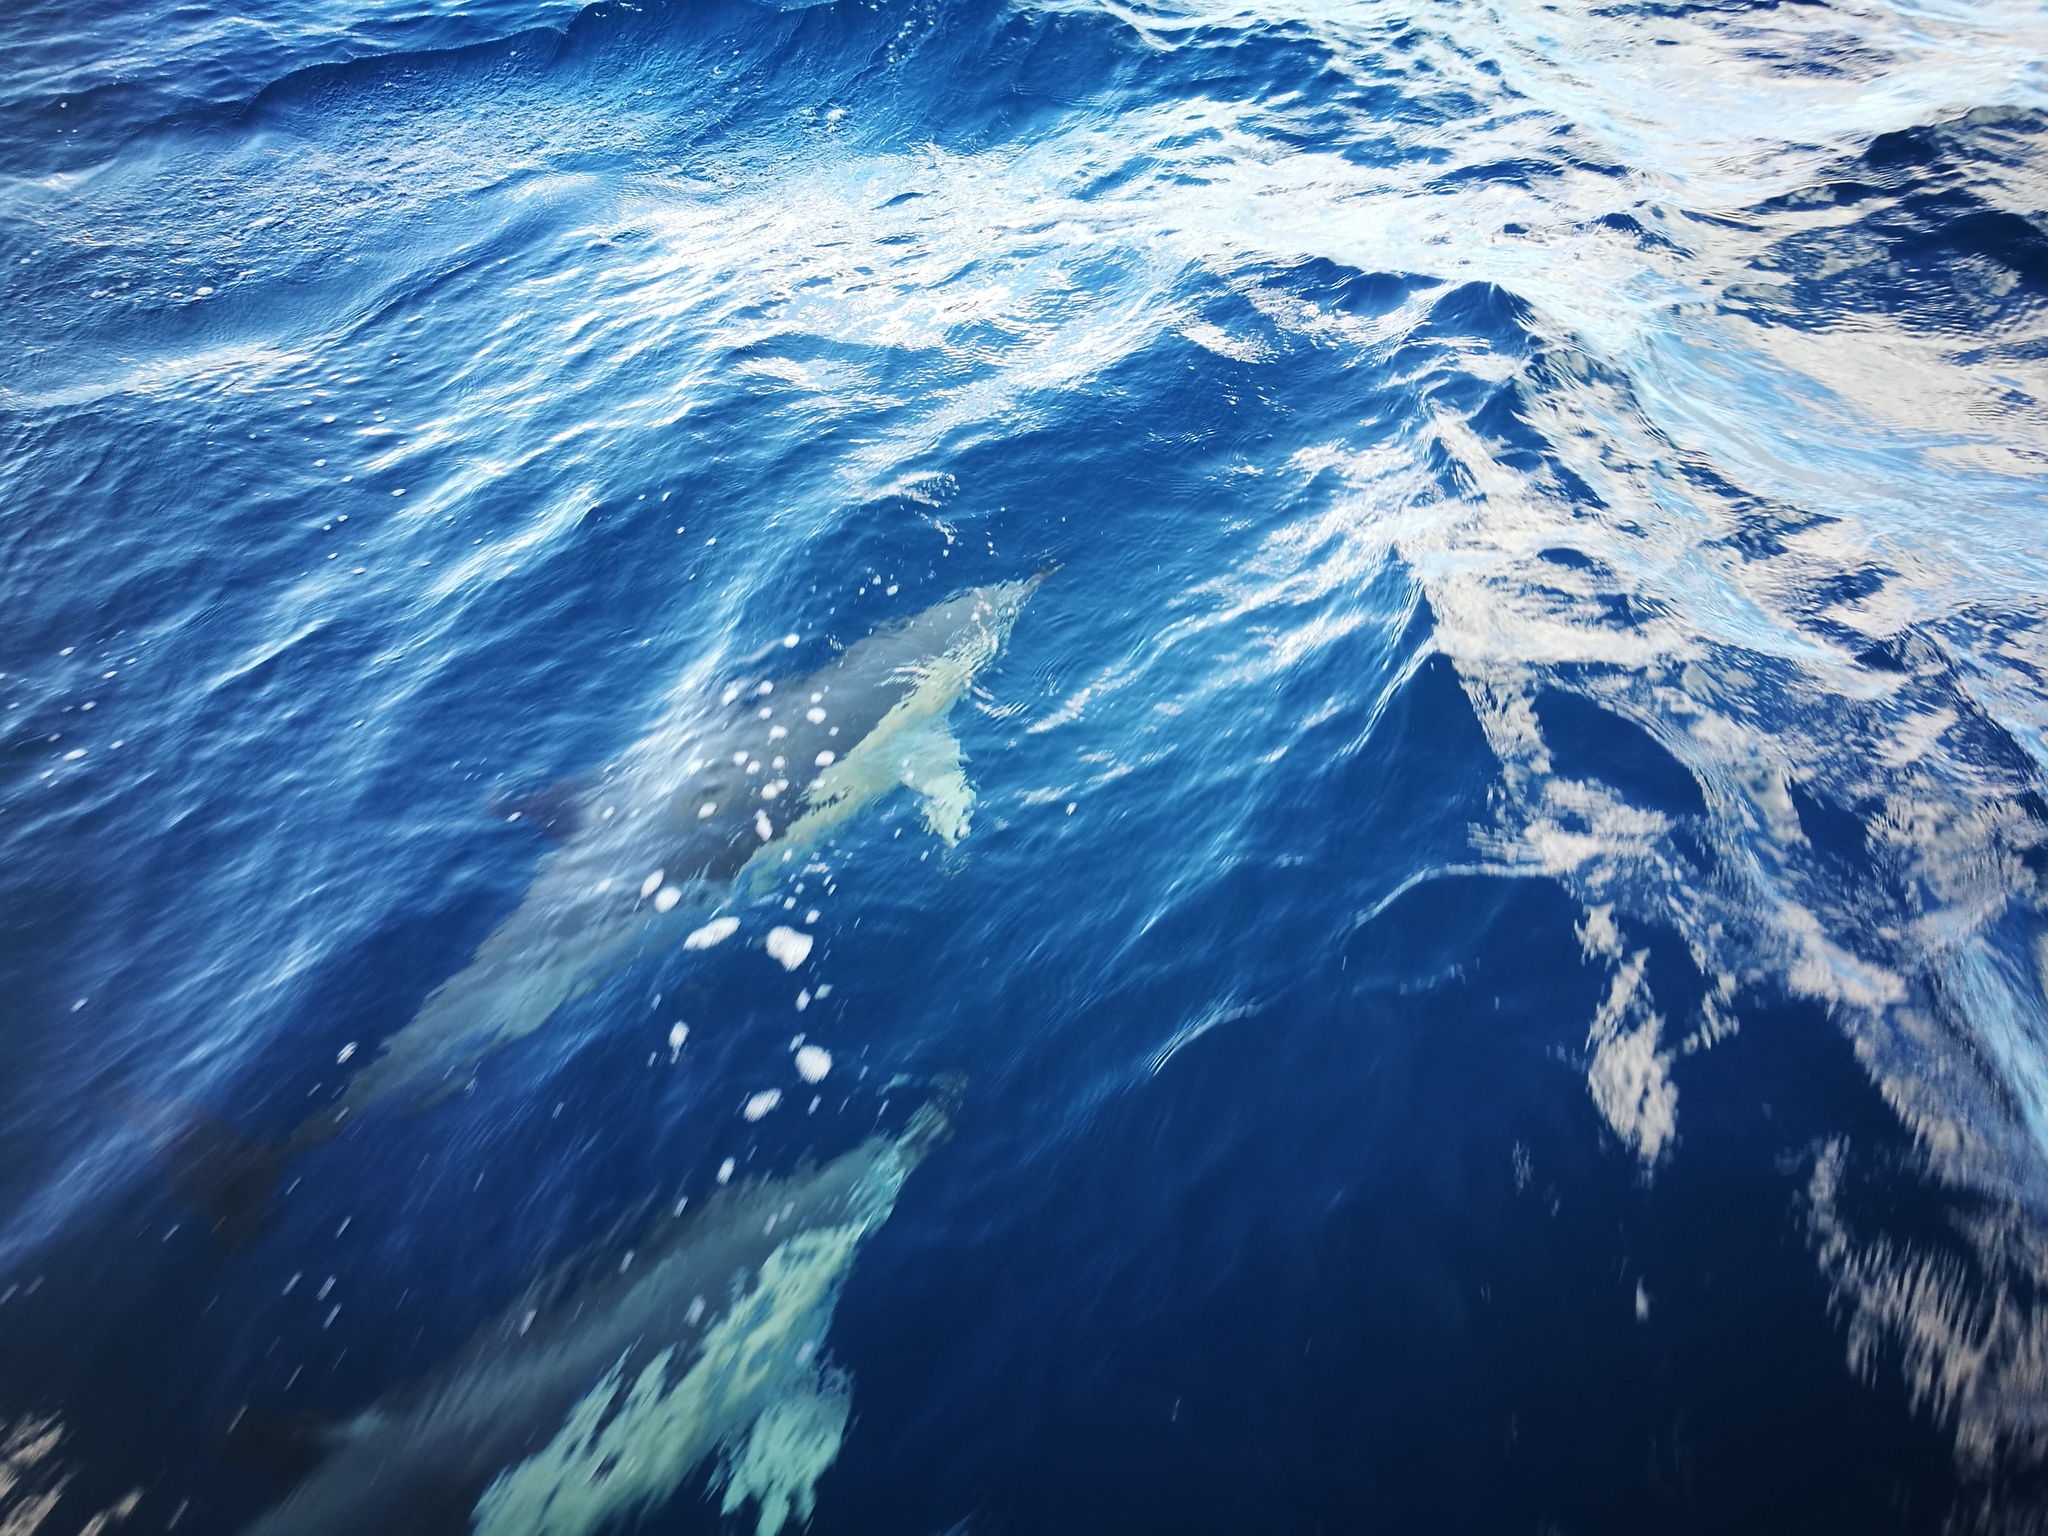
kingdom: Animalia
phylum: Chordata
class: Mammalia
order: Cetacea
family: Delphinidae
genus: Delphinus
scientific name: Delphinus delphis
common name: Common dolphin
